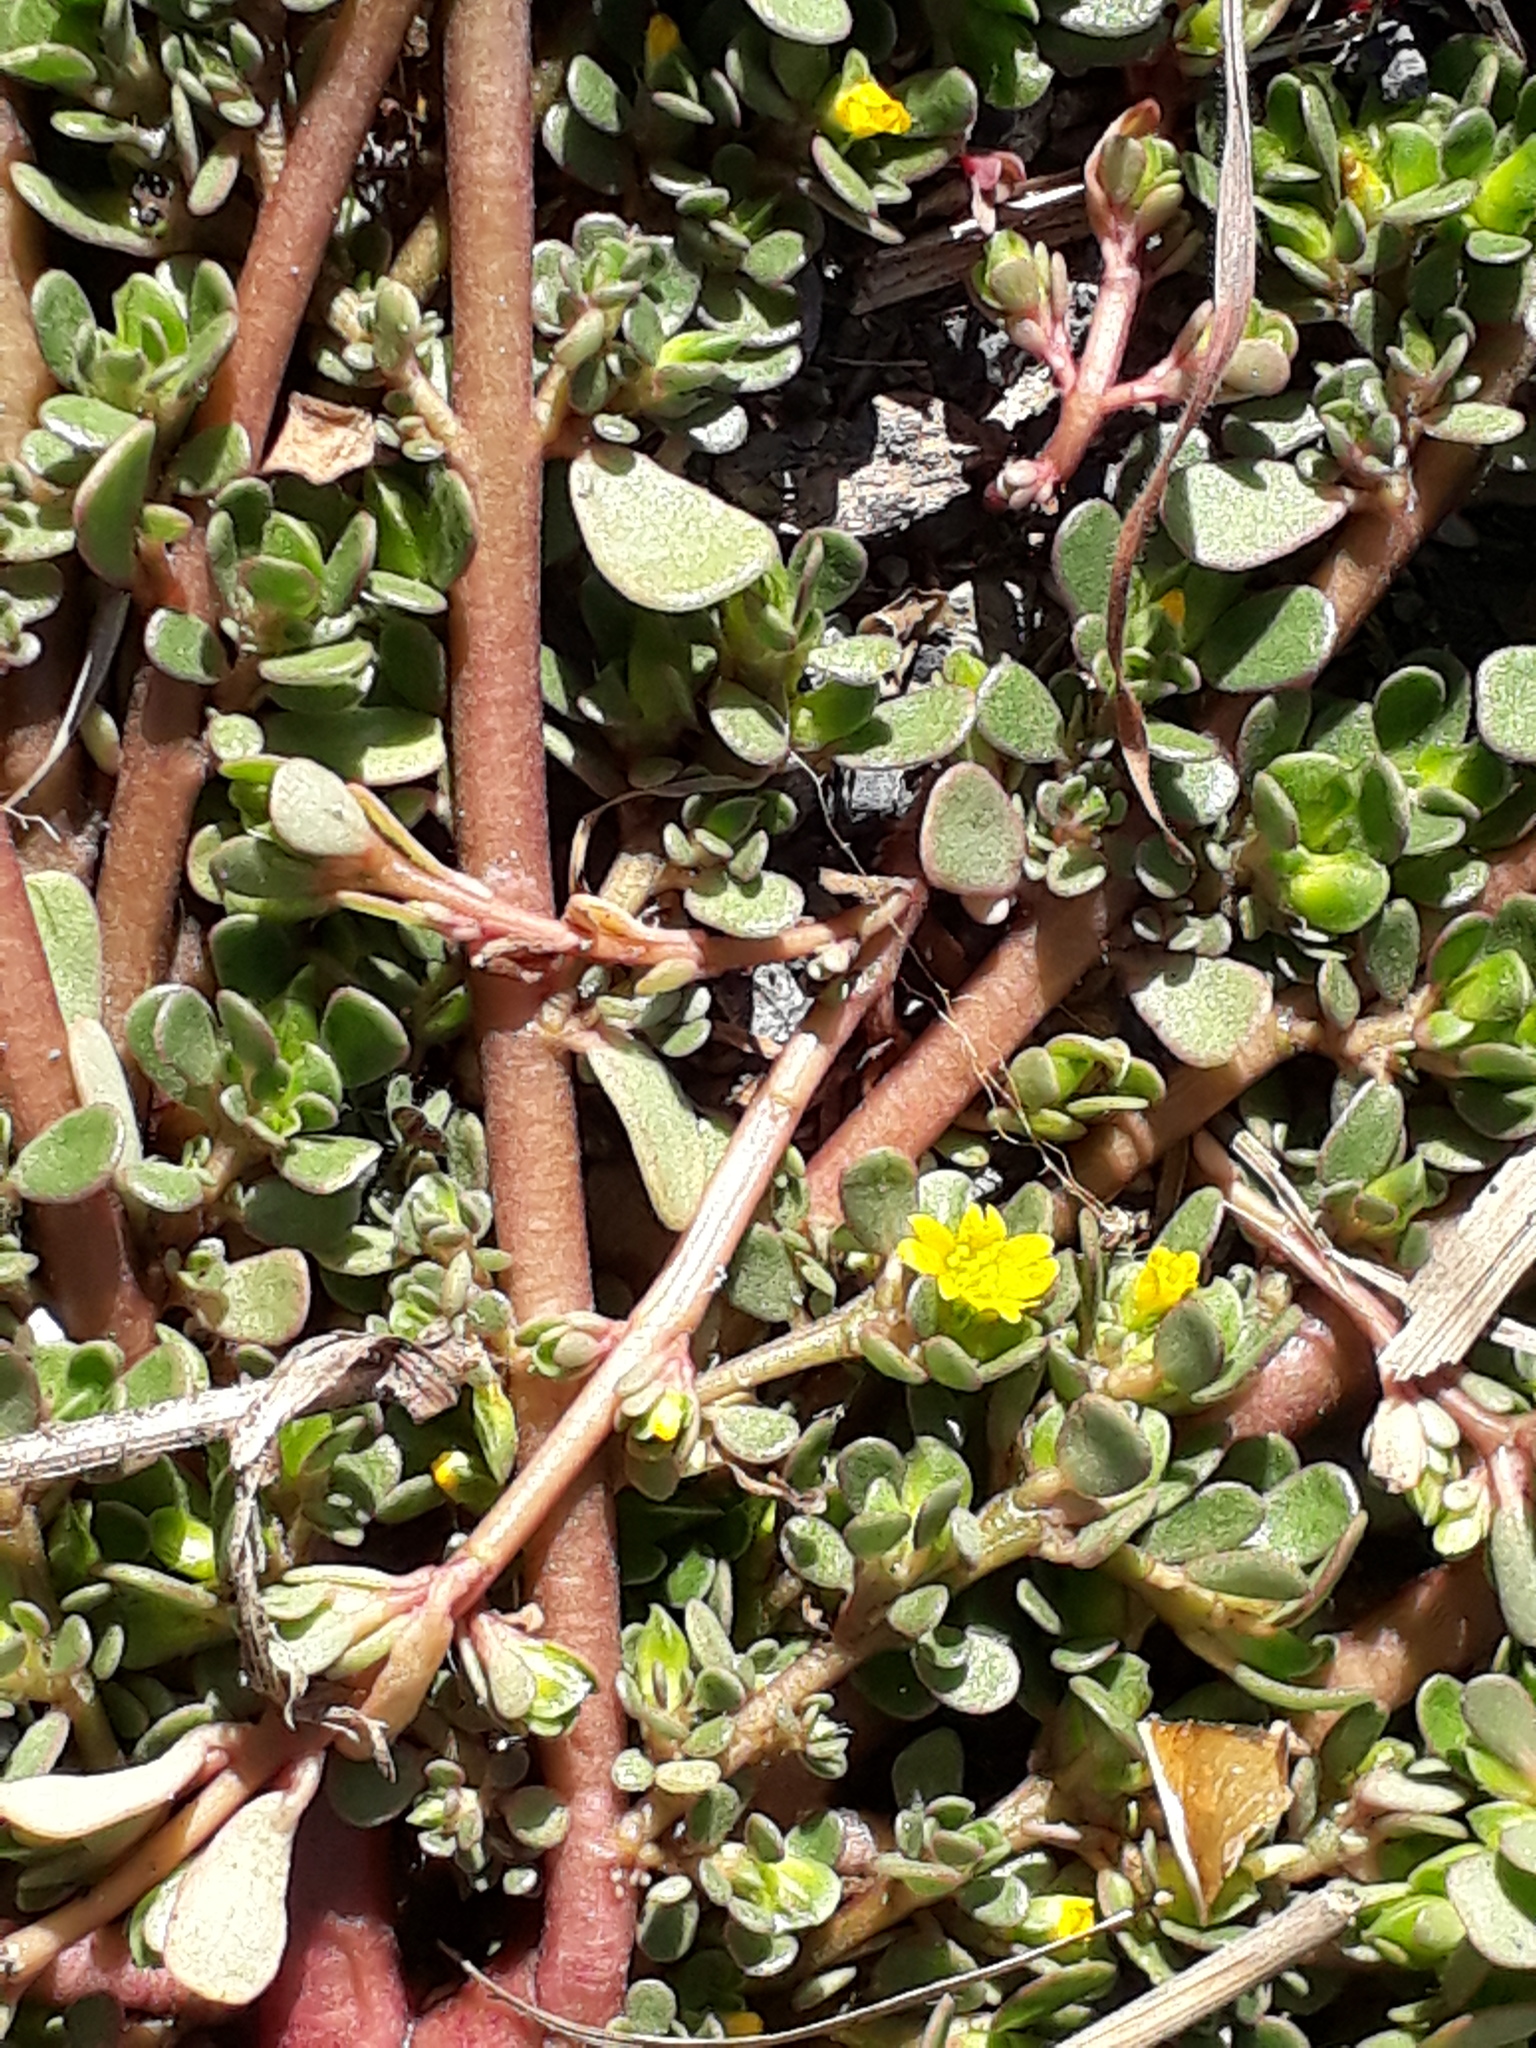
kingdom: Plantae
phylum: Tracheophyta
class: Magnoliopsida
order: Caryophyllales
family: Portulacaceae
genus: Portulaca
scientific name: Portulaca oleracea
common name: Common purslane
